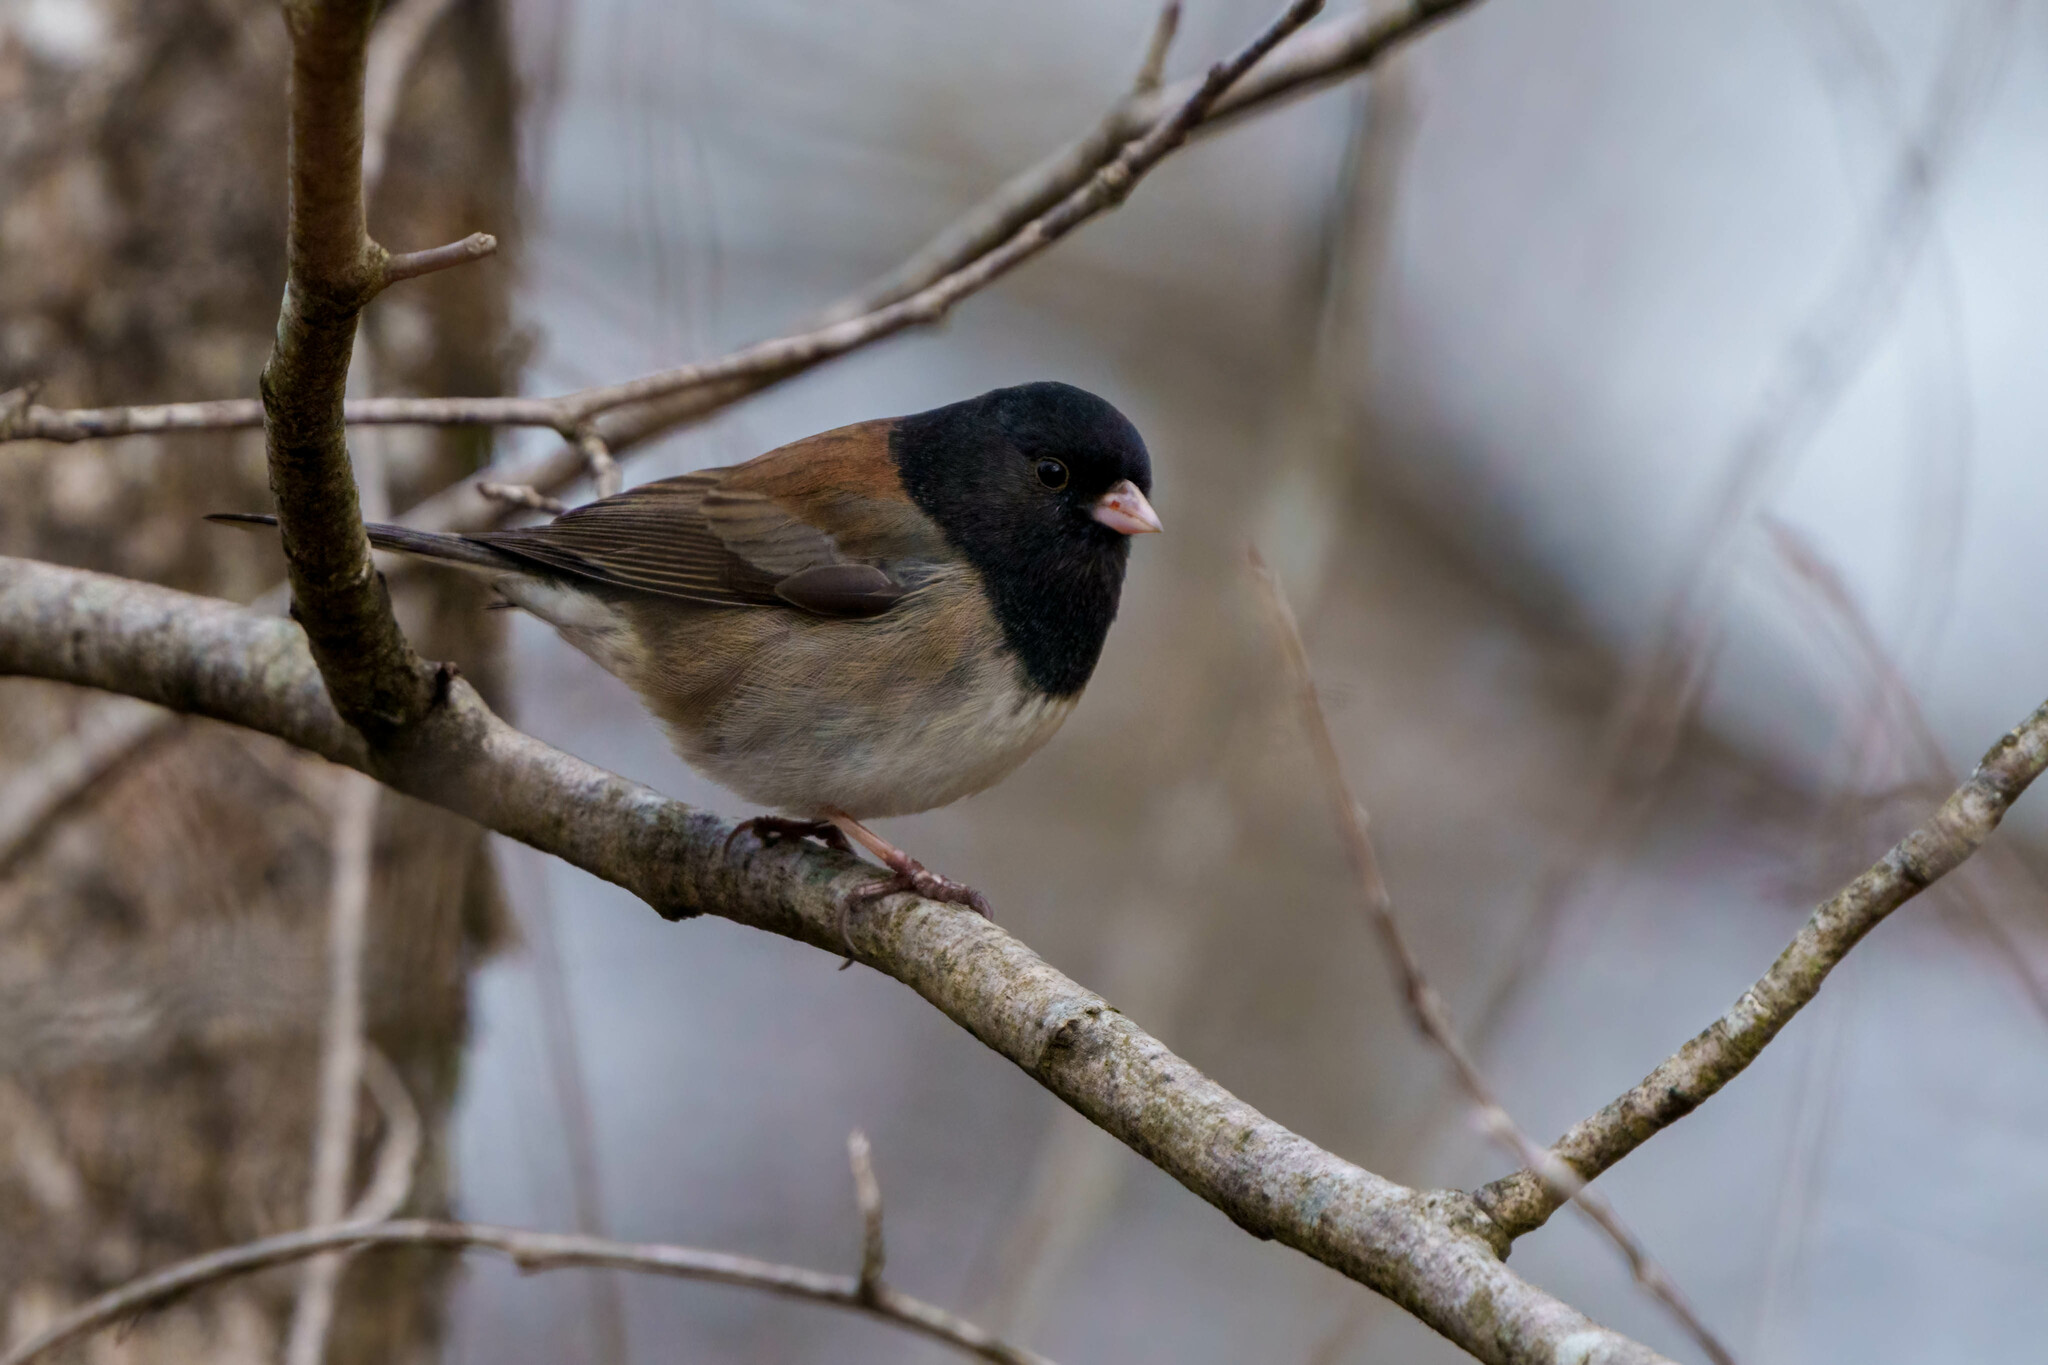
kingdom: Animalia
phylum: Chordata
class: Aves
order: Passeriformes
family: Passerellidae
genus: Junco
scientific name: Junco hyemalis
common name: Dark-eyed junco
